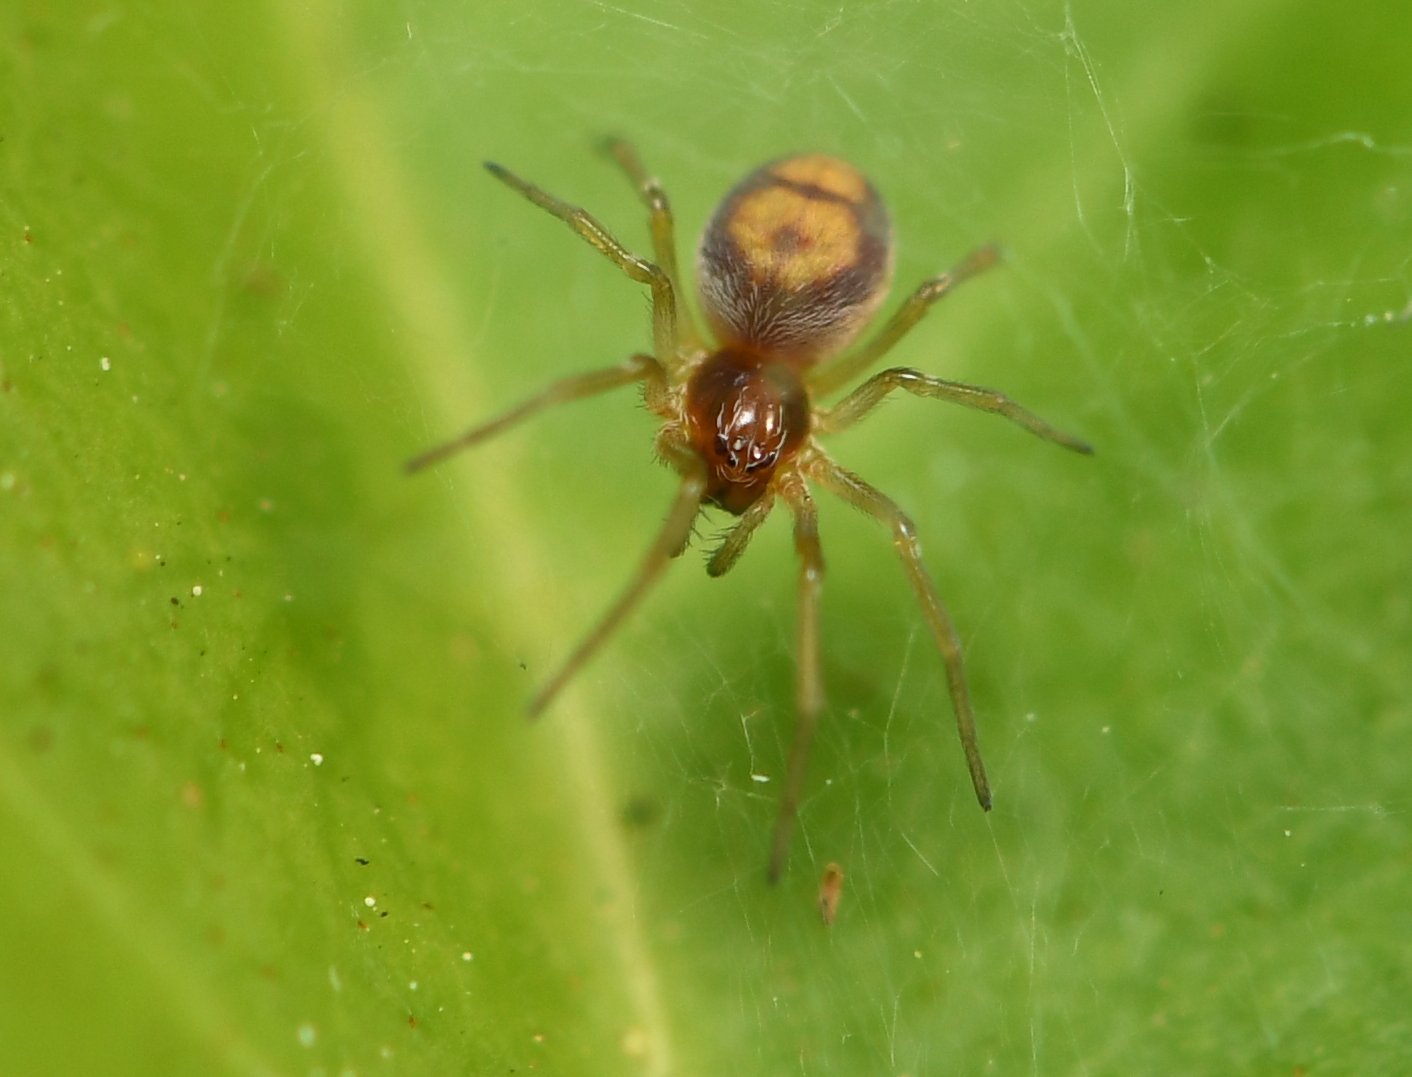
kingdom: Animalia
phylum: Arthropoda
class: Arachnida
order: Araneae
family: Dictynidae
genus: Emblyna
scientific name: Emblyna florens
